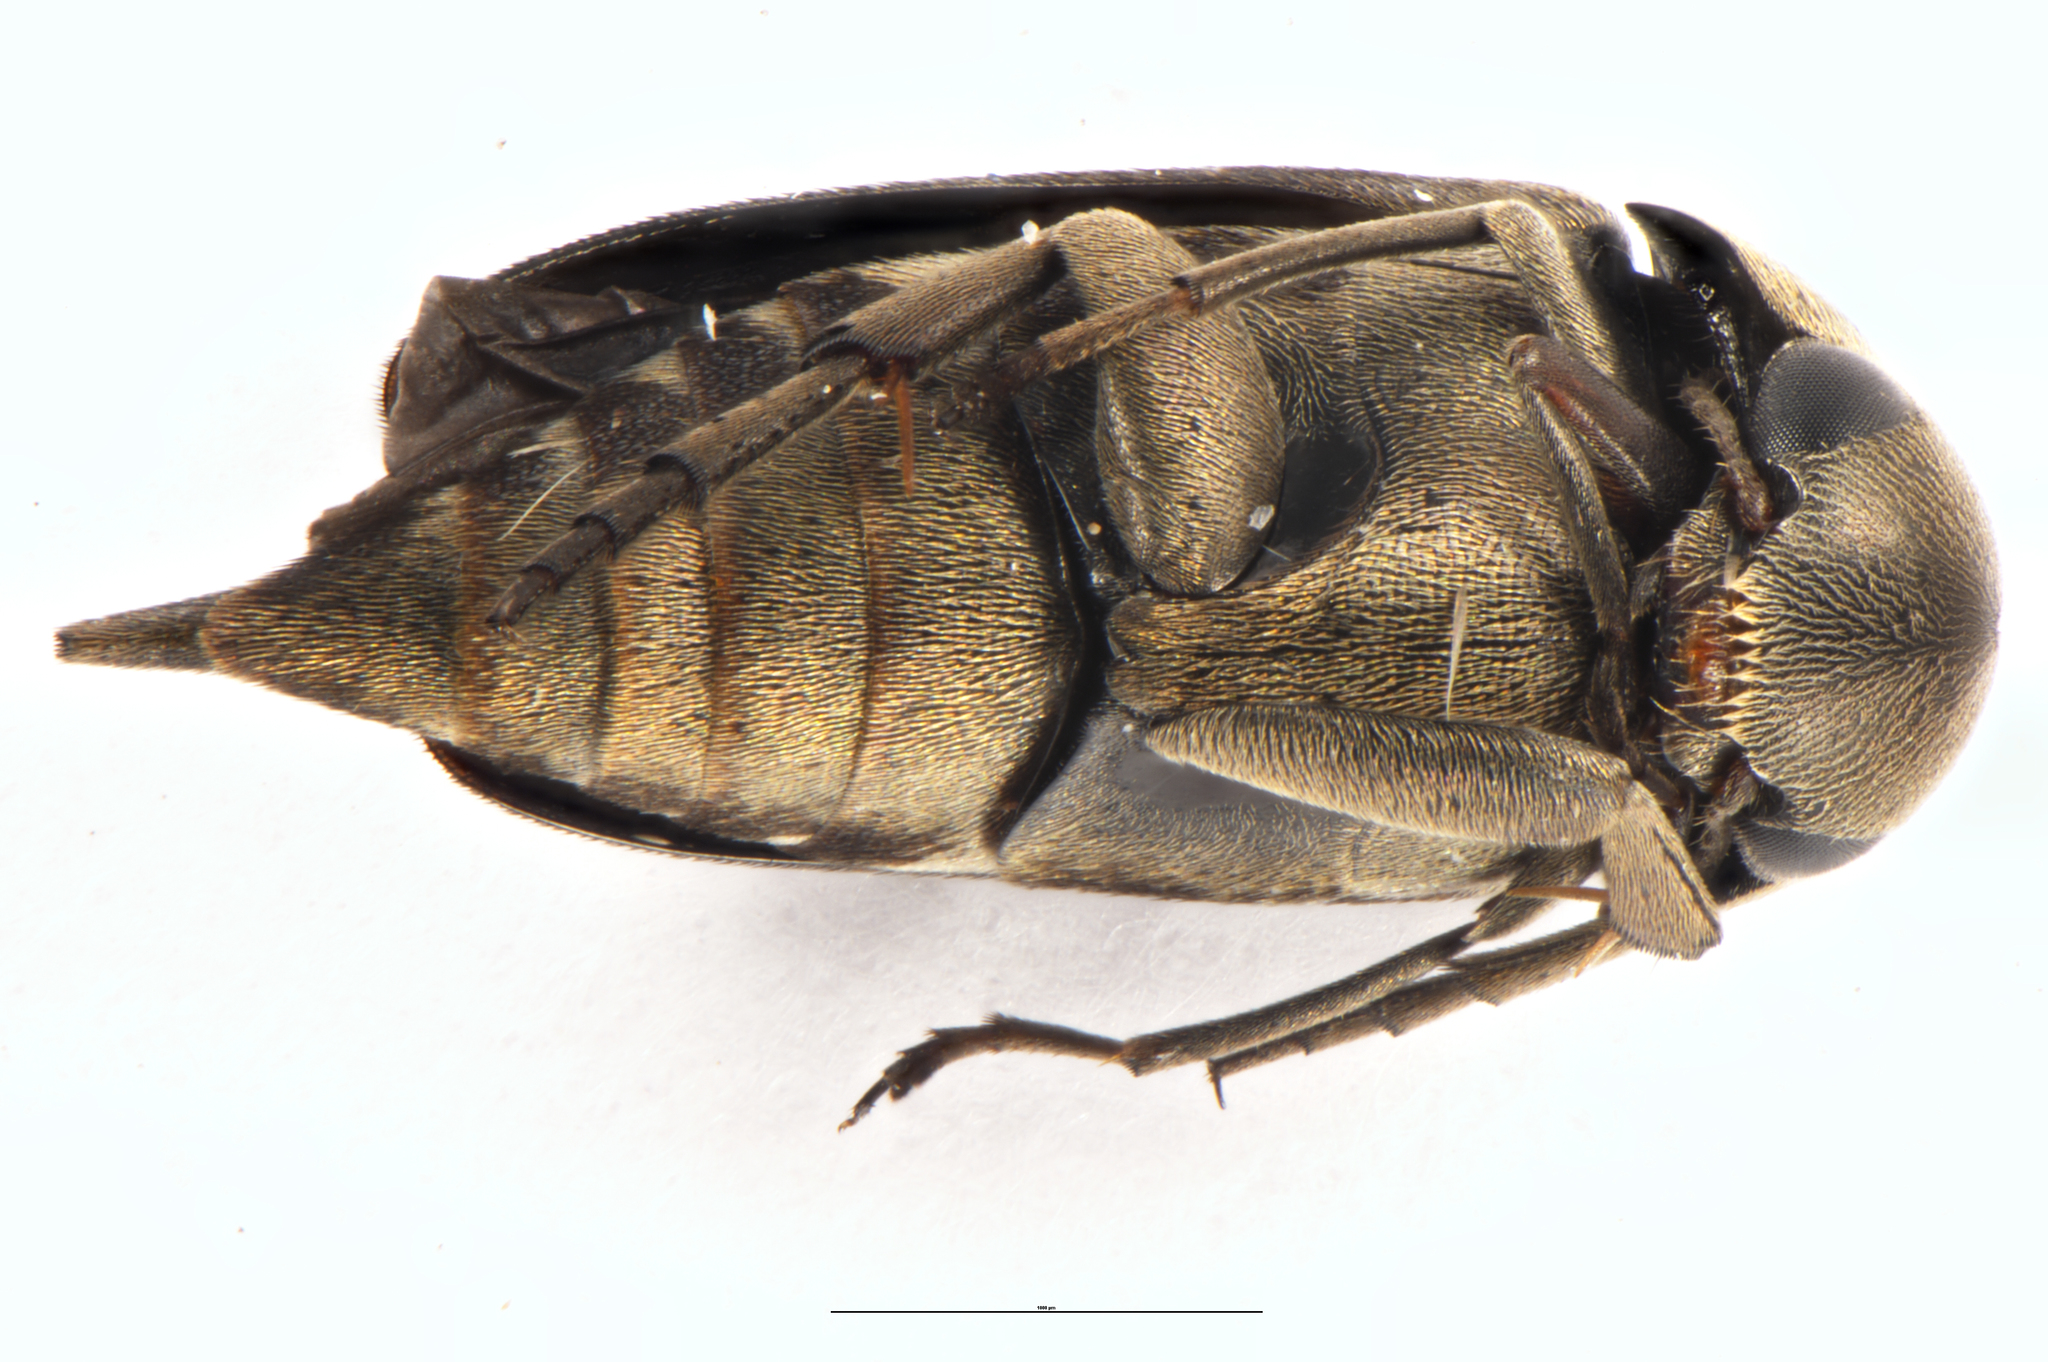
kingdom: Animalia
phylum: Arthropoda
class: Insecta
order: Coleoptera
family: Mordellidae
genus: Zeamordella
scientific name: Zeamordella monacha
